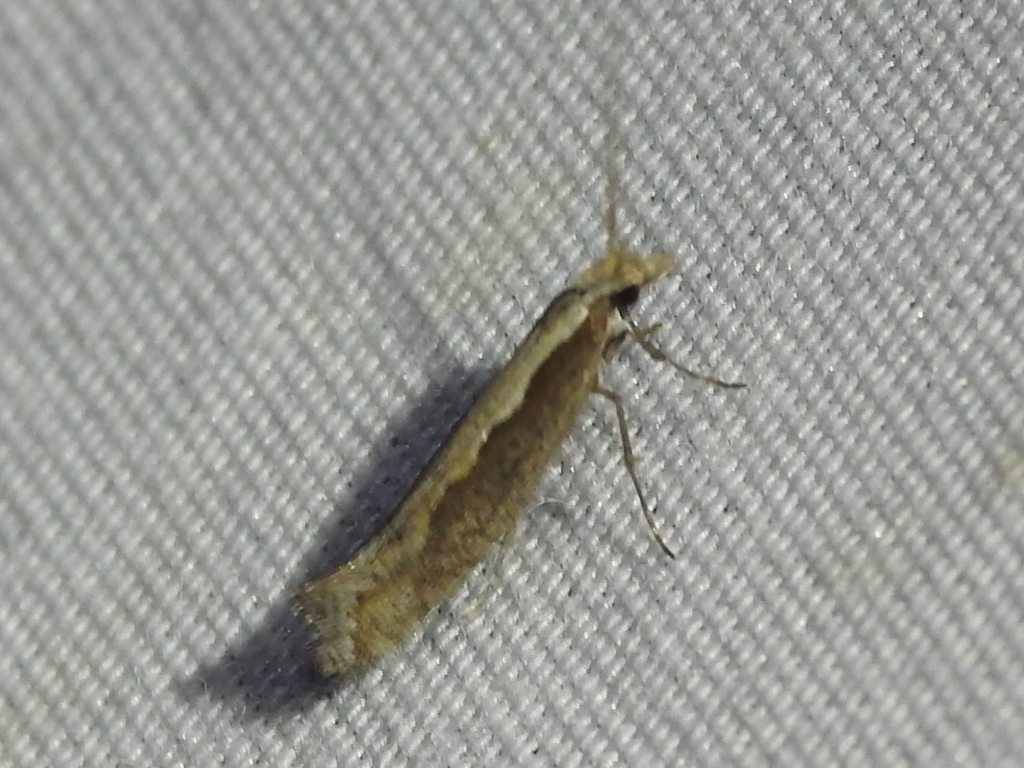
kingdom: Animalia
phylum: Arthropoda
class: Insecta
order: Lepidoptera
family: Plutellidae
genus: Plutella
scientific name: Plutella xylostella
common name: Diamond-back moth
